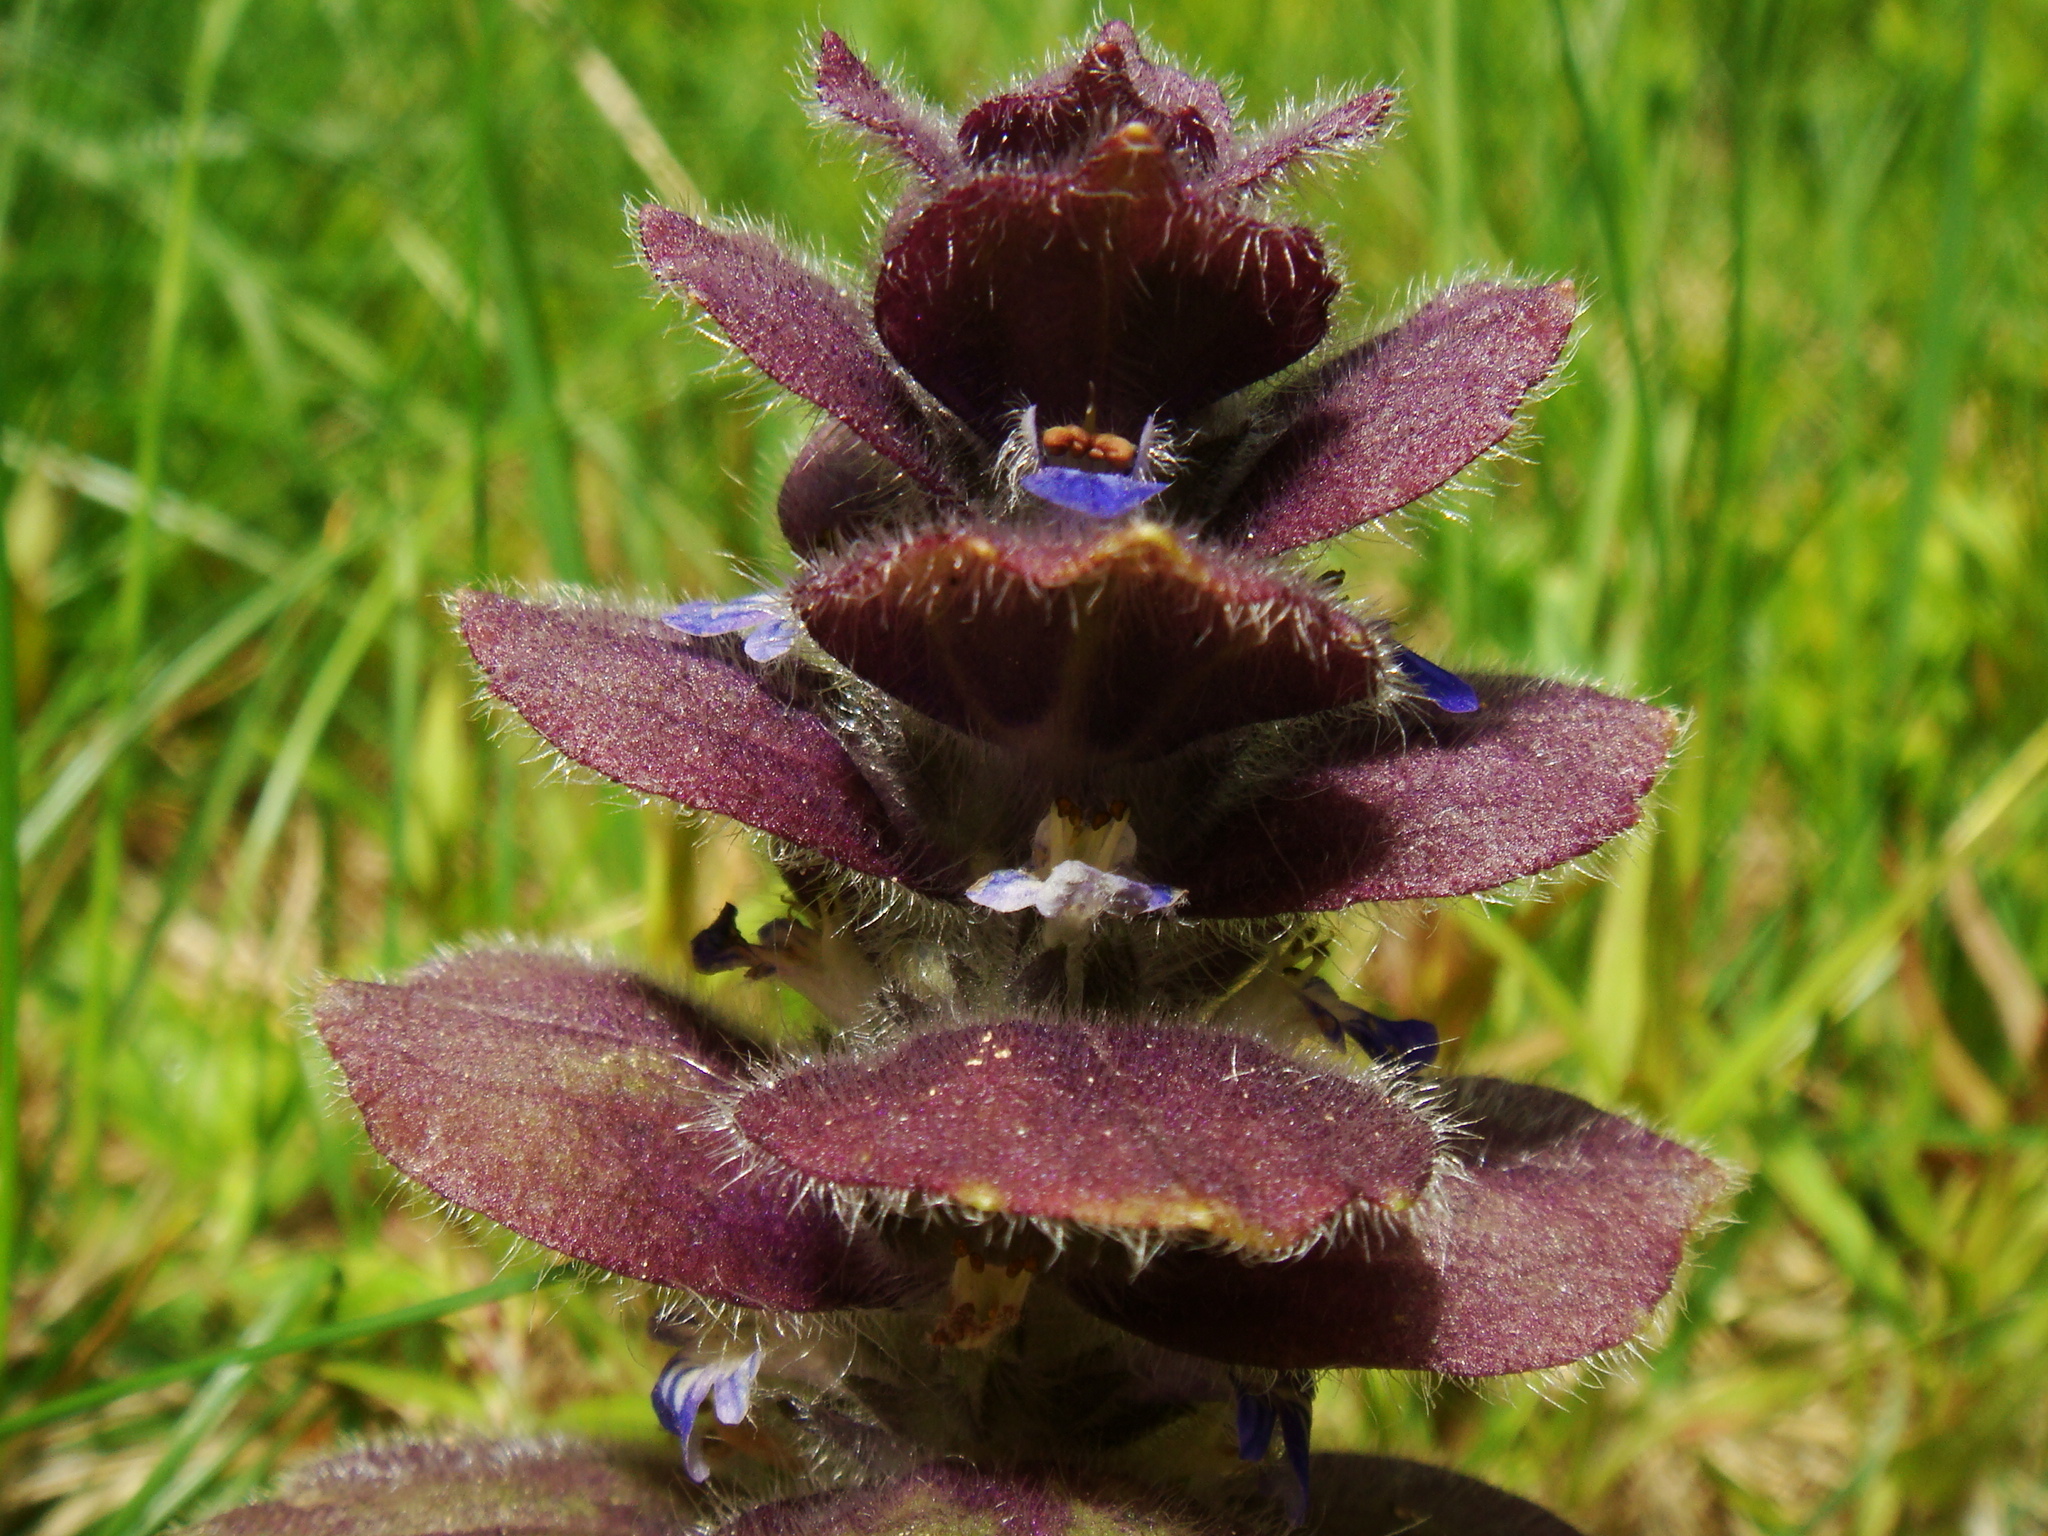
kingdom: Plantae
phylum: Tracheophyta
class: Magnoliopsida
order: Lamiales
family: Lamiaceae
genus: Ajuga
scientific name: Ajuga pyramidalis
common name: Pyramid bugle
